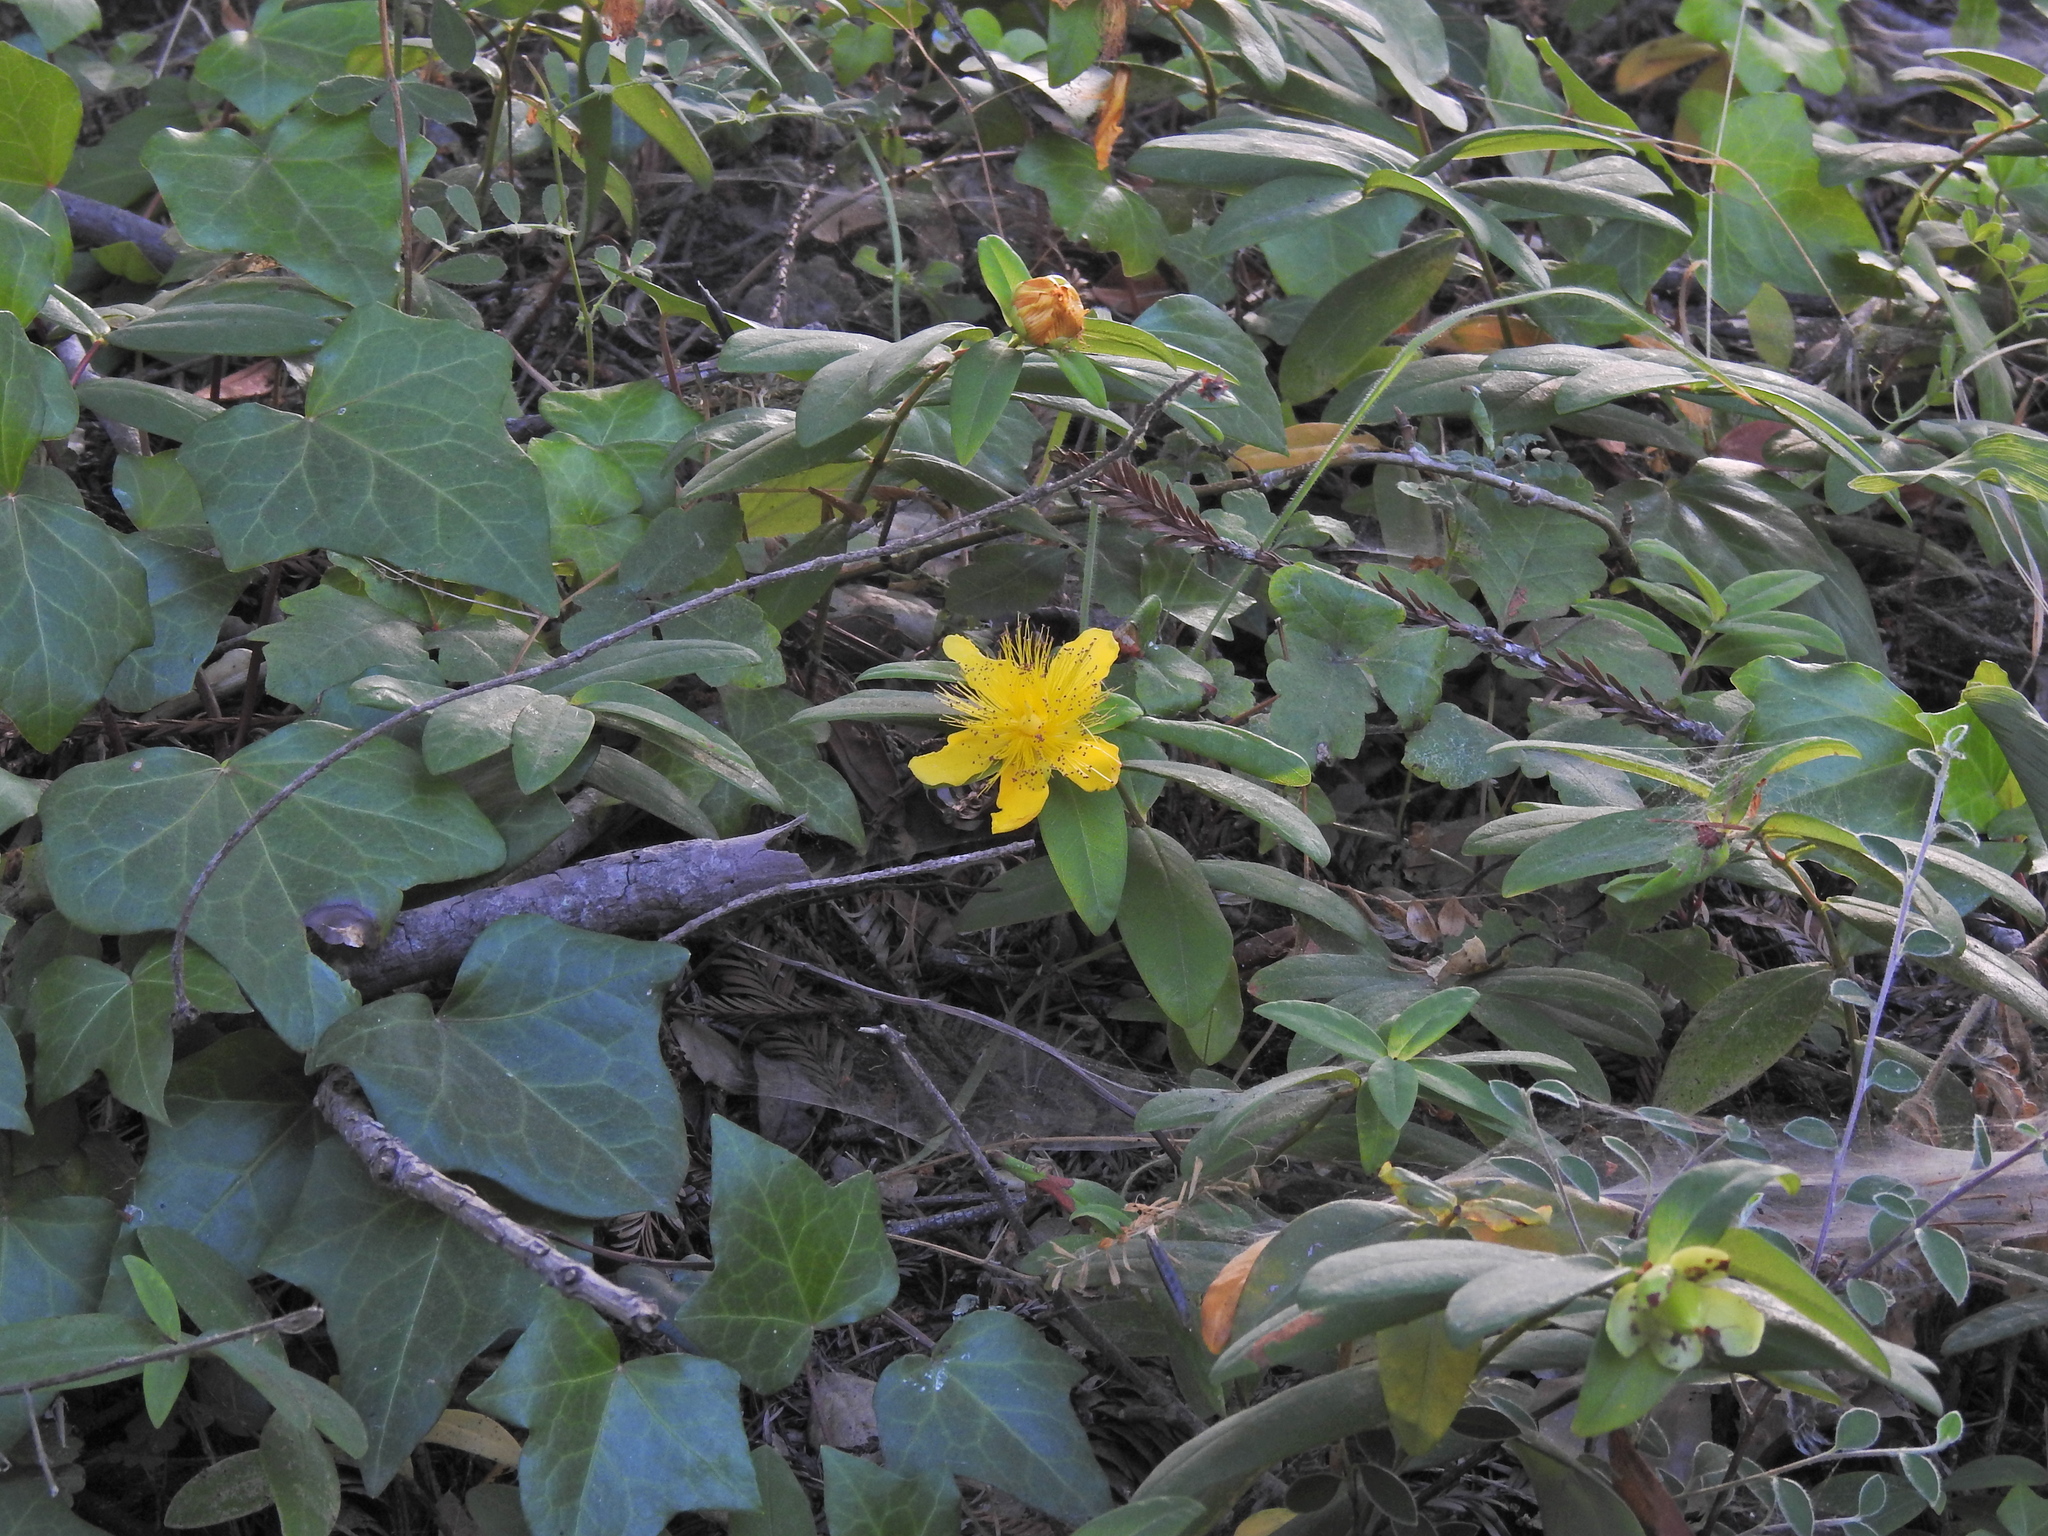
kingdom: Plantae
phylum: Tracheophyta
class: Magnoliopsida
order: Malpighiales
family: Hypericaceae
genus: Hypericum
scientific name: Hypericum calycinum
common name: Rose-of-sharon
